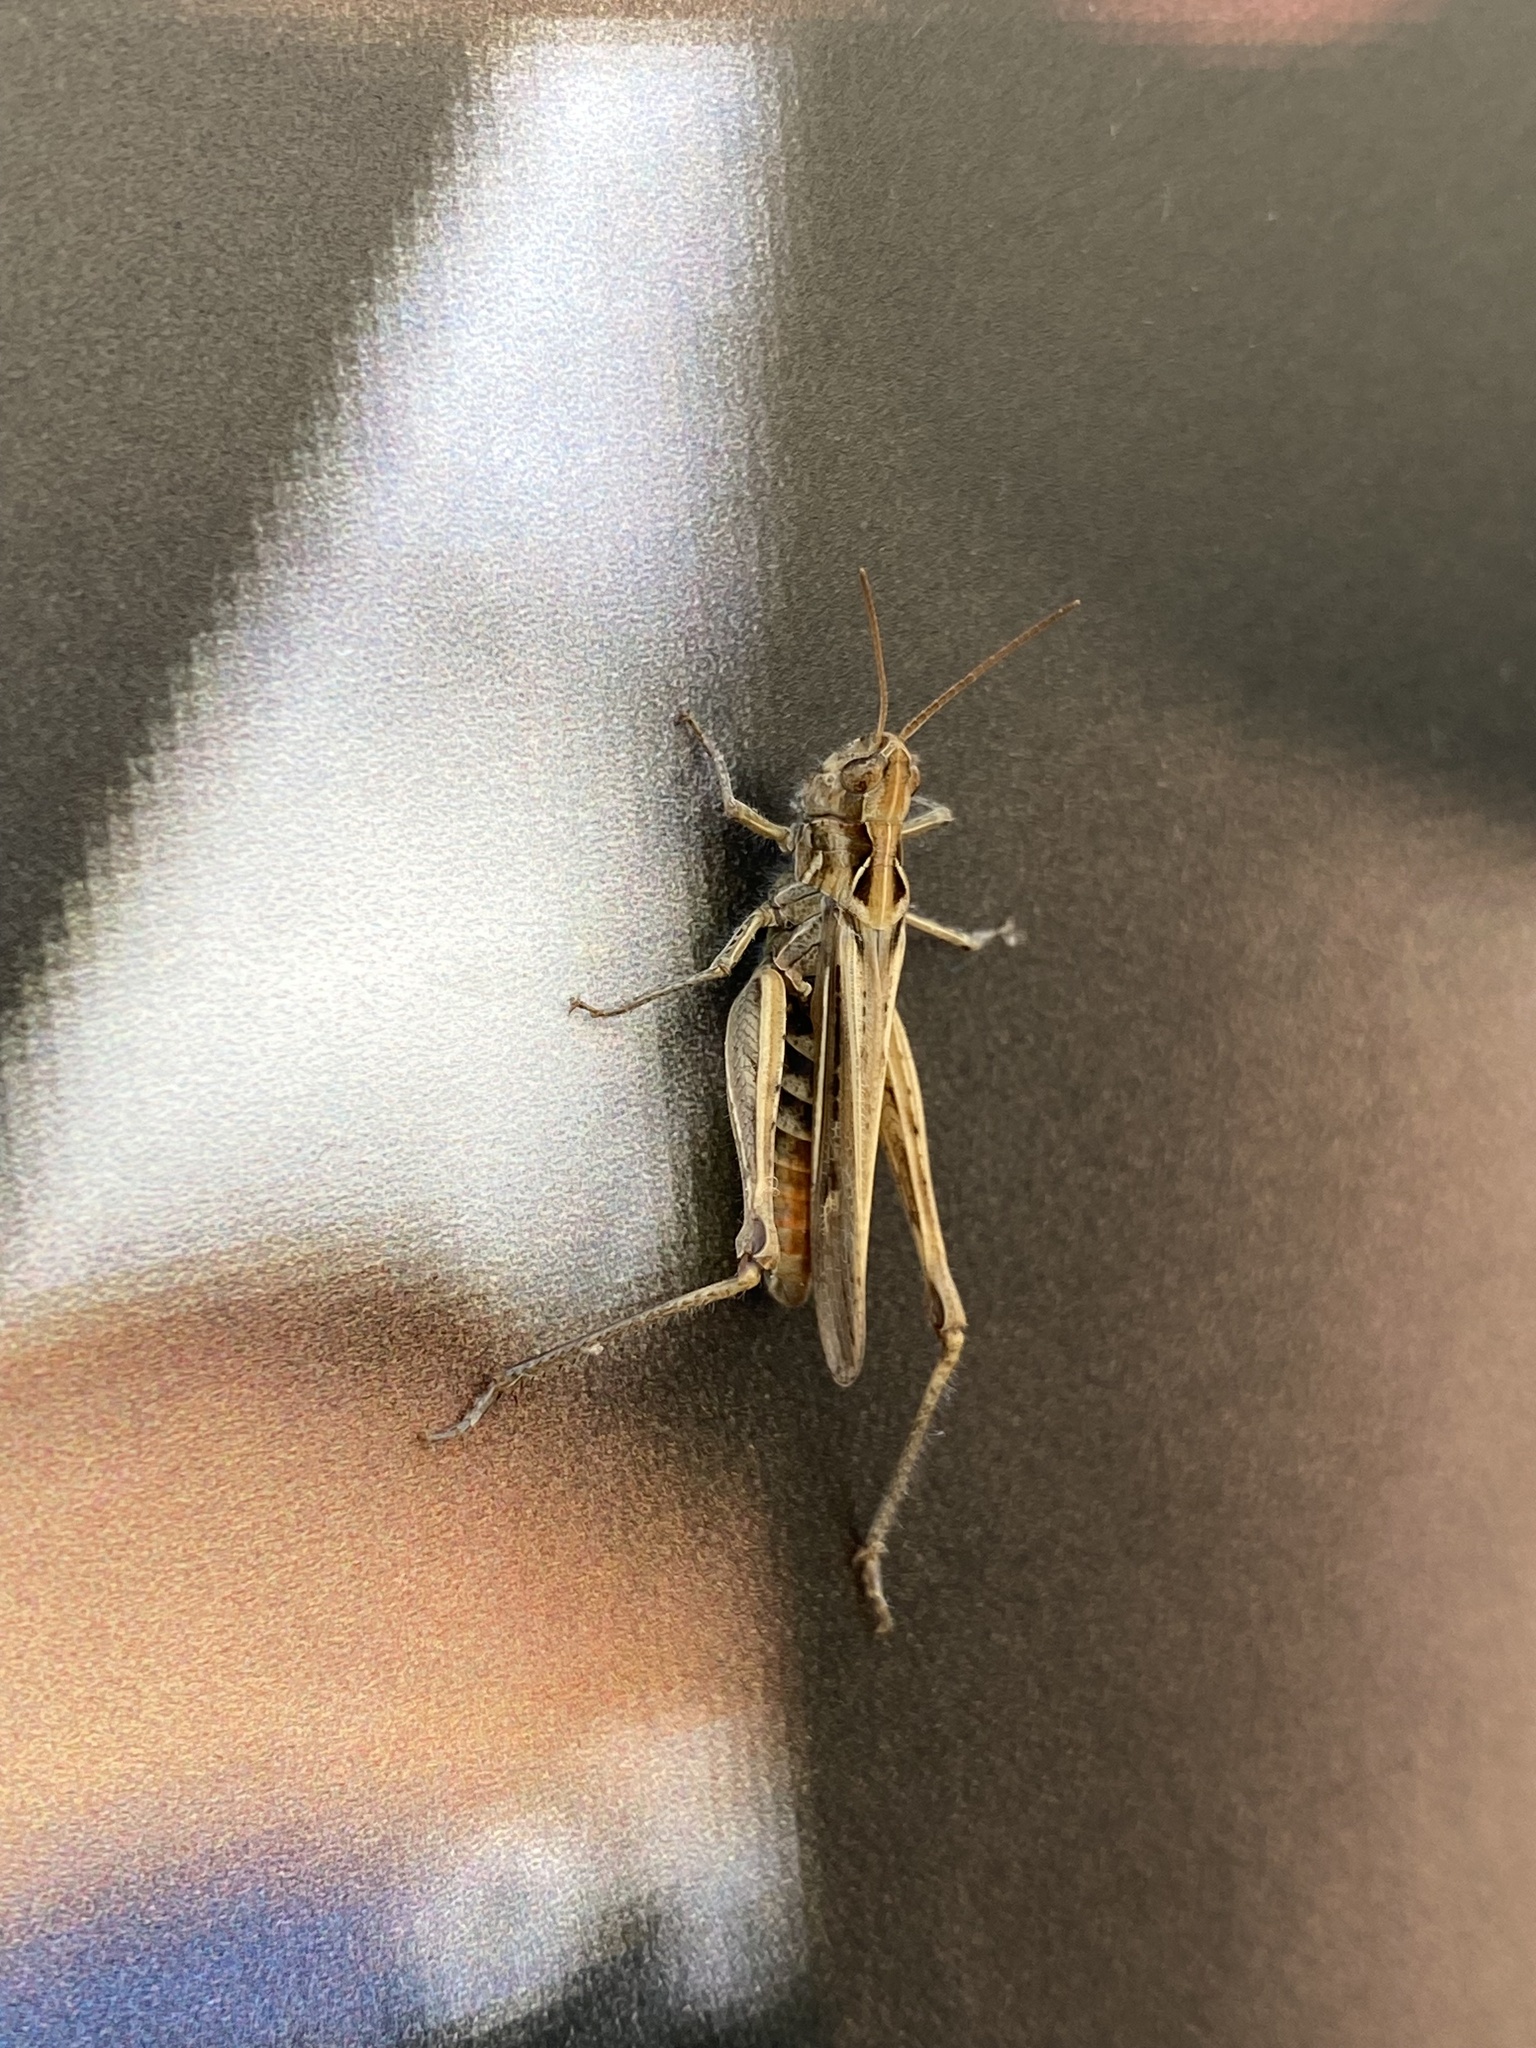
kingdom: Animalia
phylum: Arthropoda
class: Insecta
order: Orthoptera
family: Acrididae
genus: Chorthippus
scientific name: Chorthippus brunneus
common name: Field grasshopper
